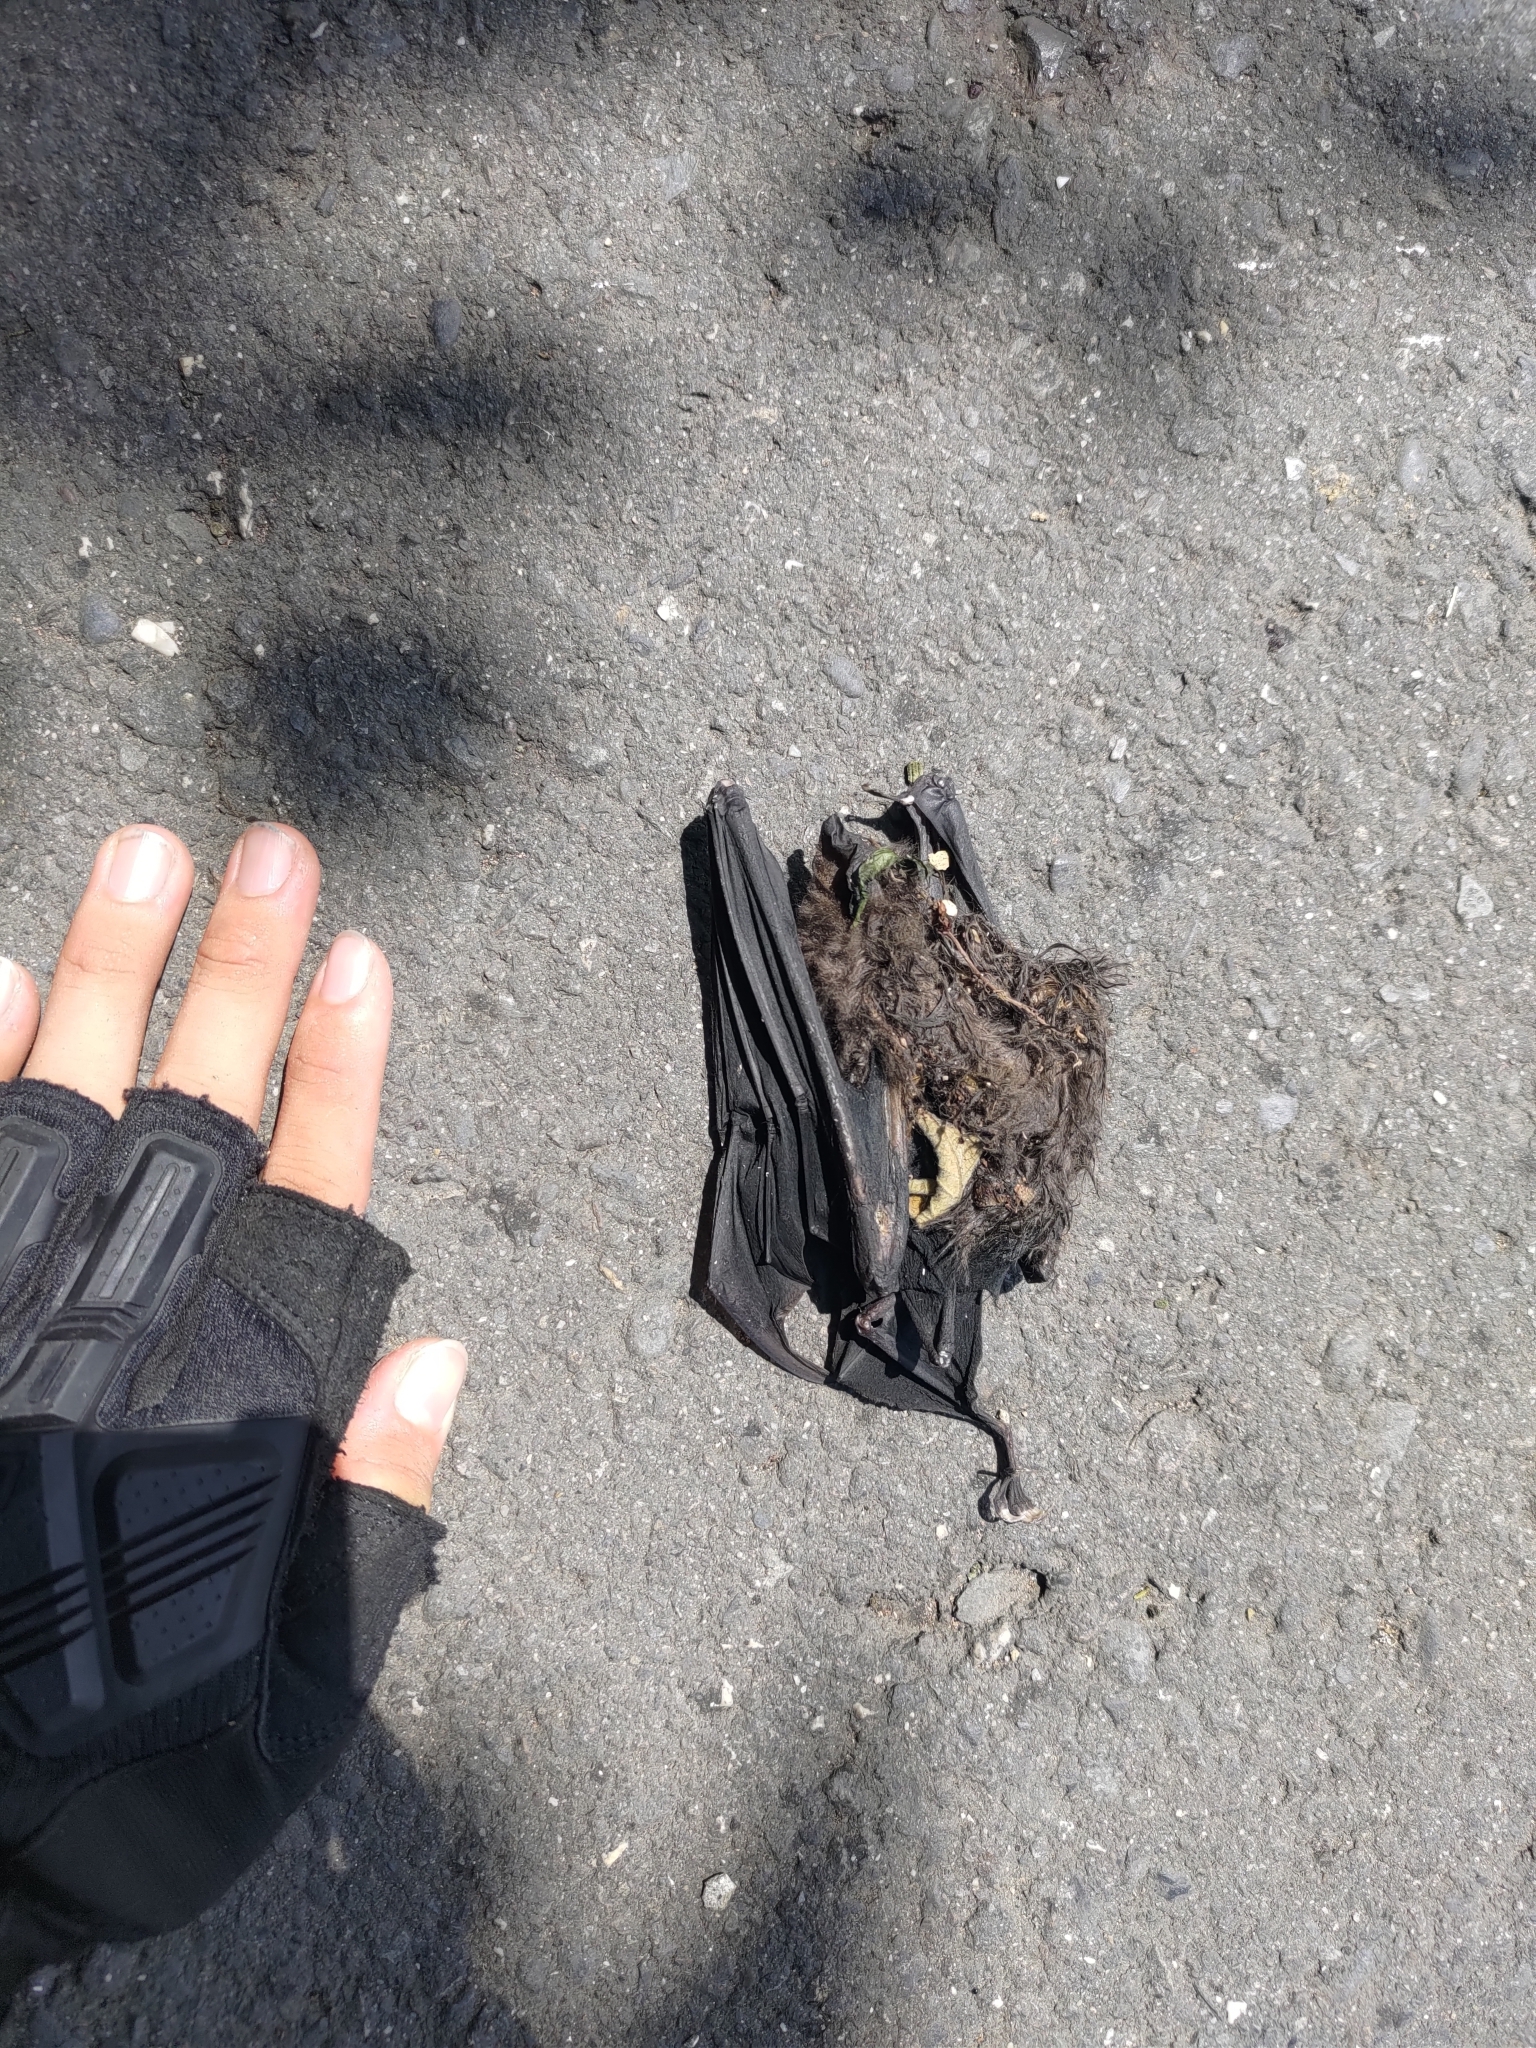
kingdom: Animalia
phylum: Chordata
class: Mammalia
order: Chiroptera
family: Hipposideridae
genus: Hipposideros
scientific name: Hipposideros armiger
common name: Great leaf-nosed bat
